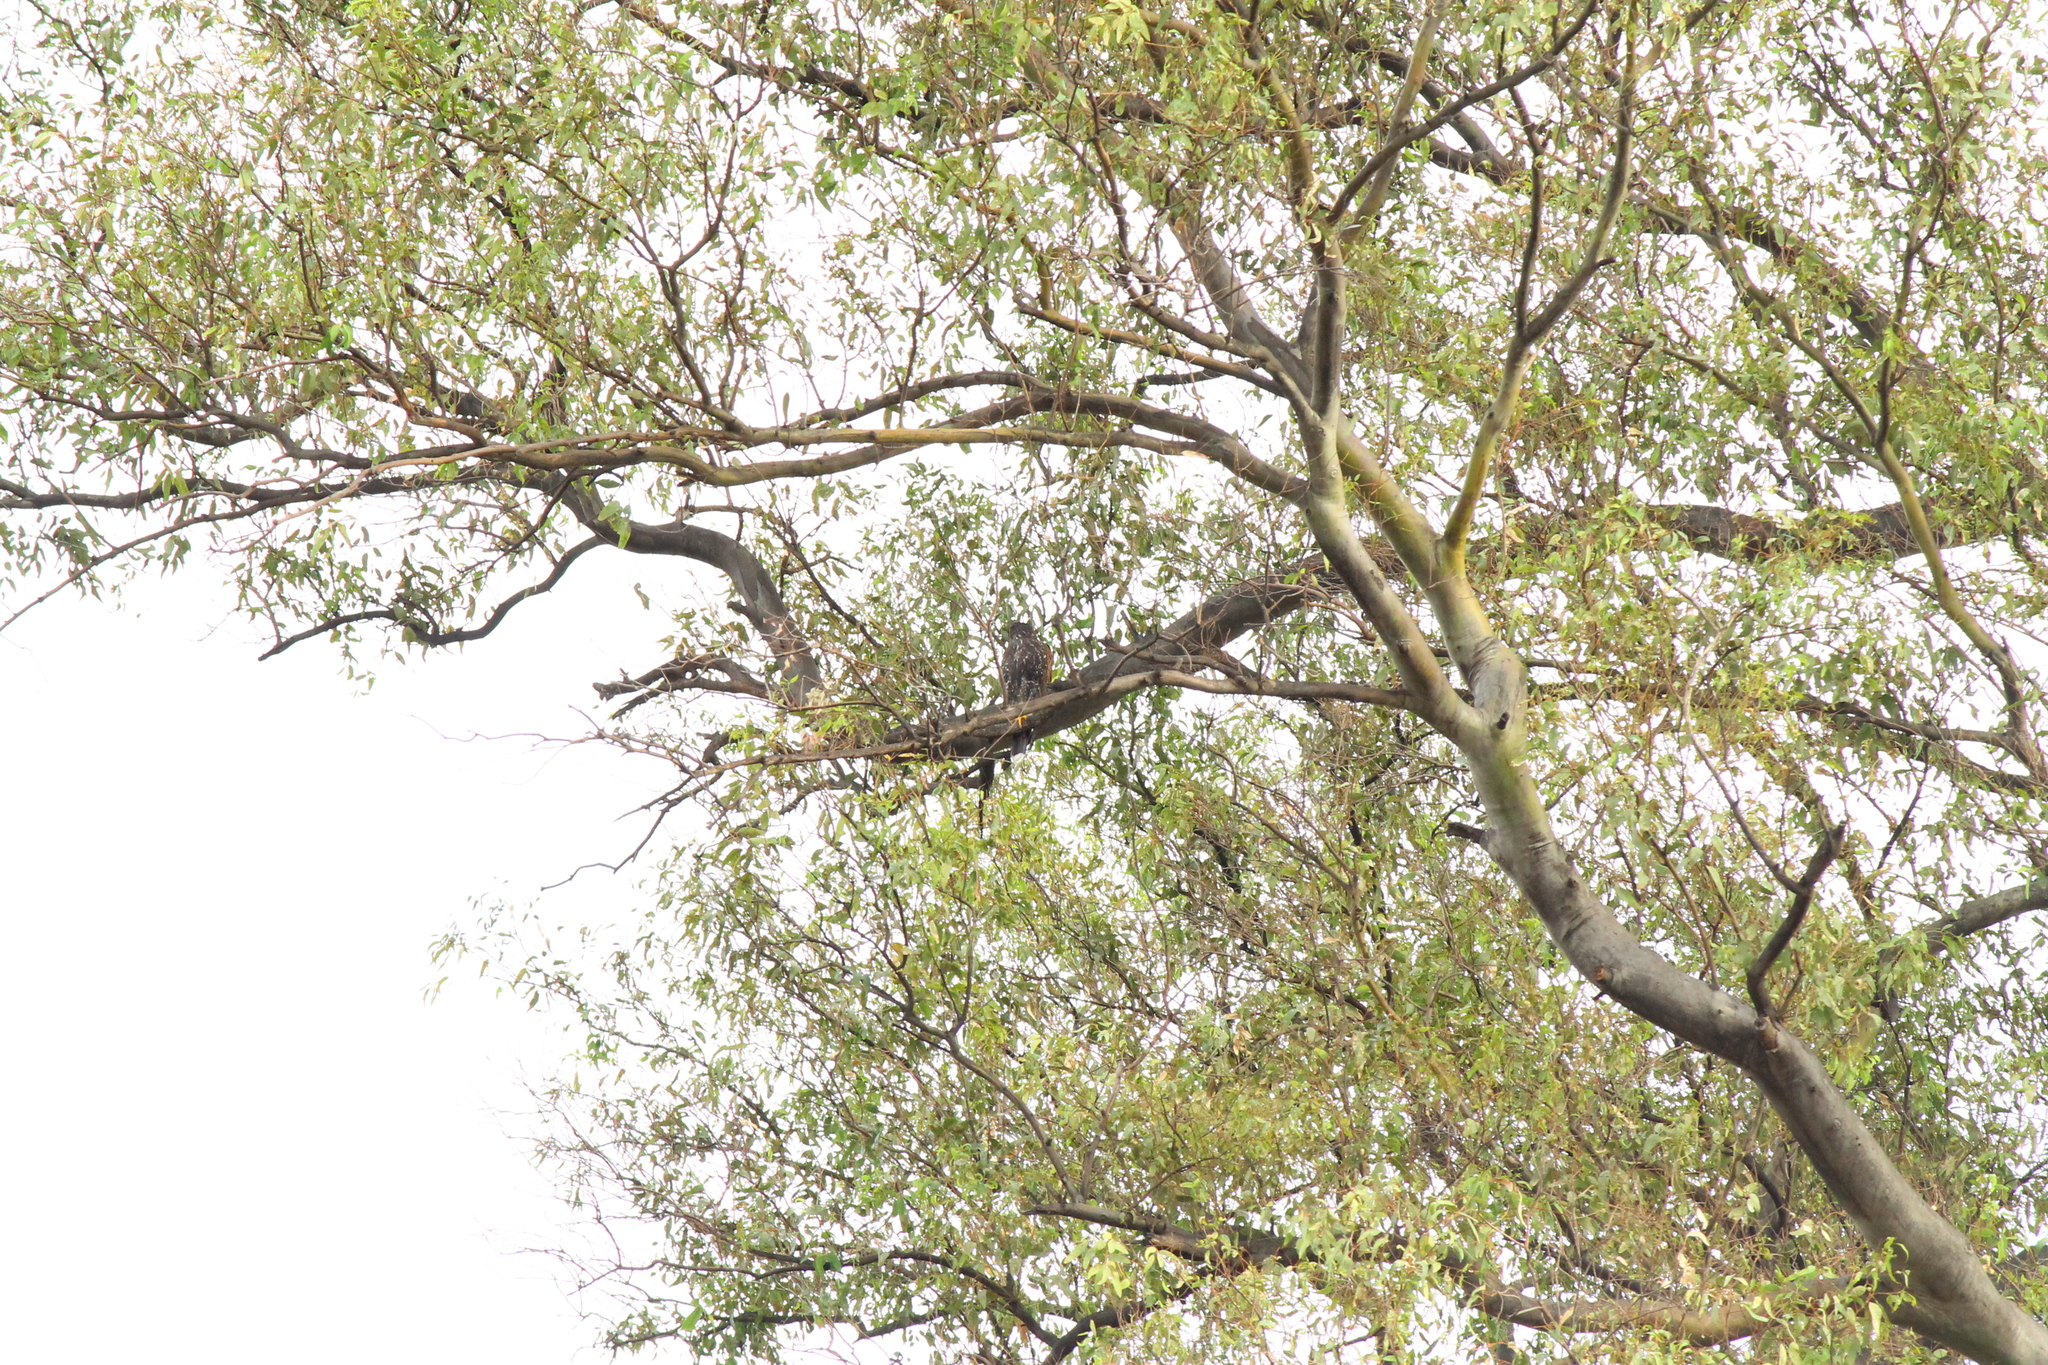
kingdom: Animalia
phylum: Chordata
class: Aves
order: Accipitriformes
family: Accipitridae
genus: Parabuteo
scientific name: Parabuteo unicinctus
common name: Harris's hawk
